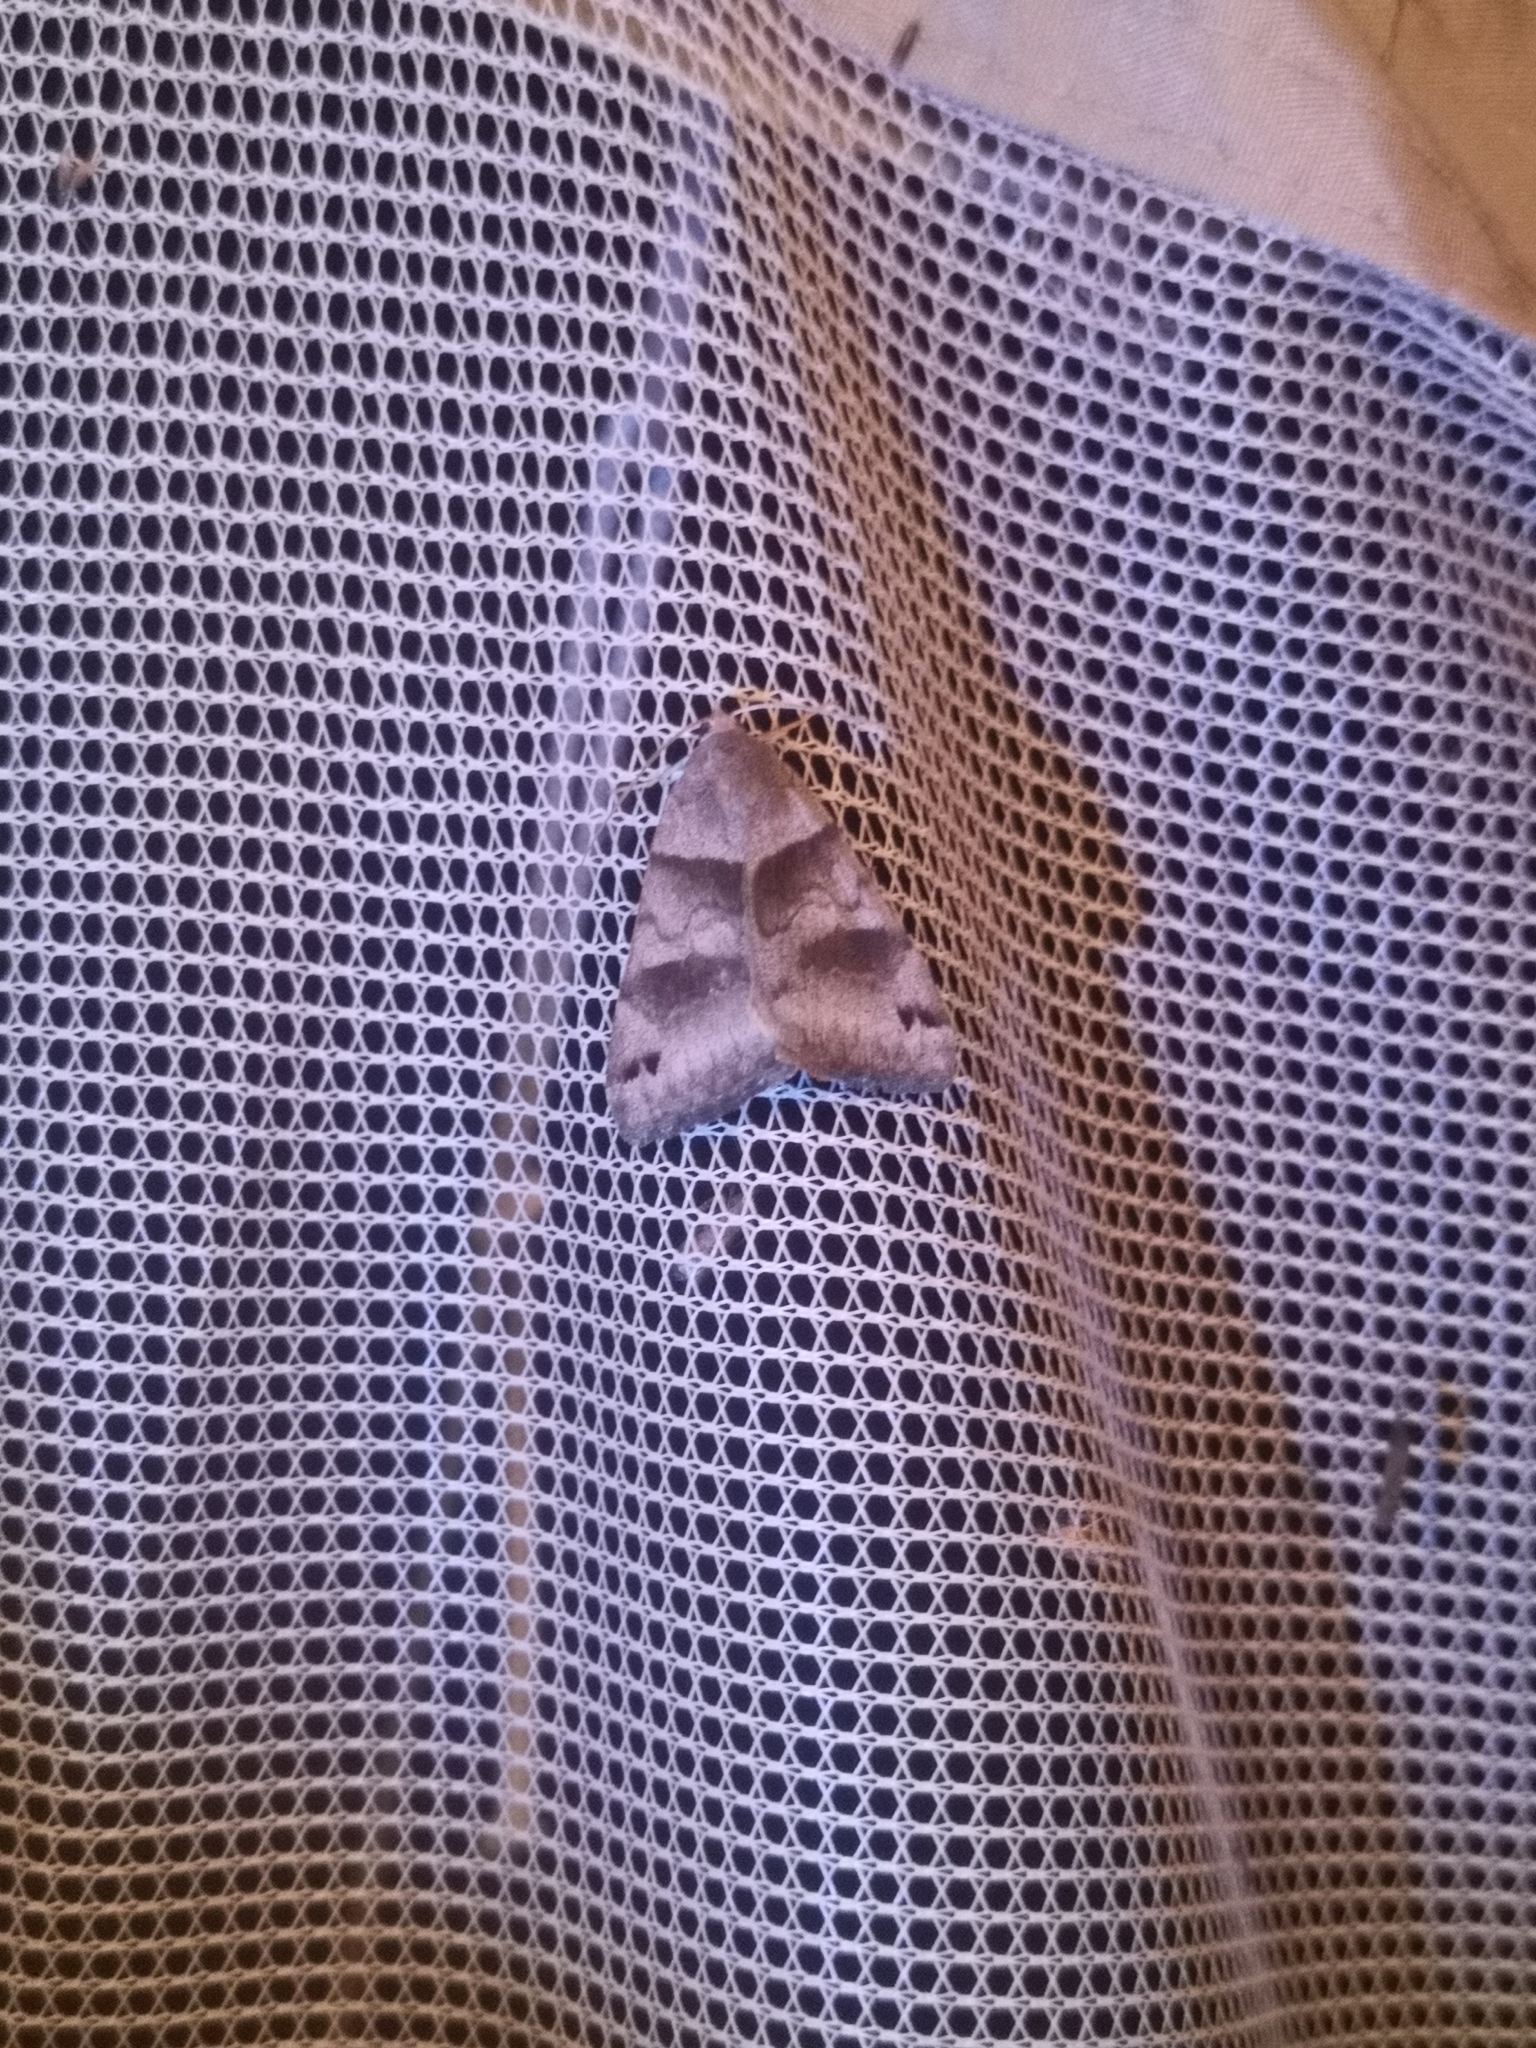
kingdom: Animalia
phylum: Arthropoda
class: Insecta
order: Lepidoptera
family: Erebidae
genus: Caenurgina
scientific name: Caenurgina erechtea
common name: Forage looper moth
